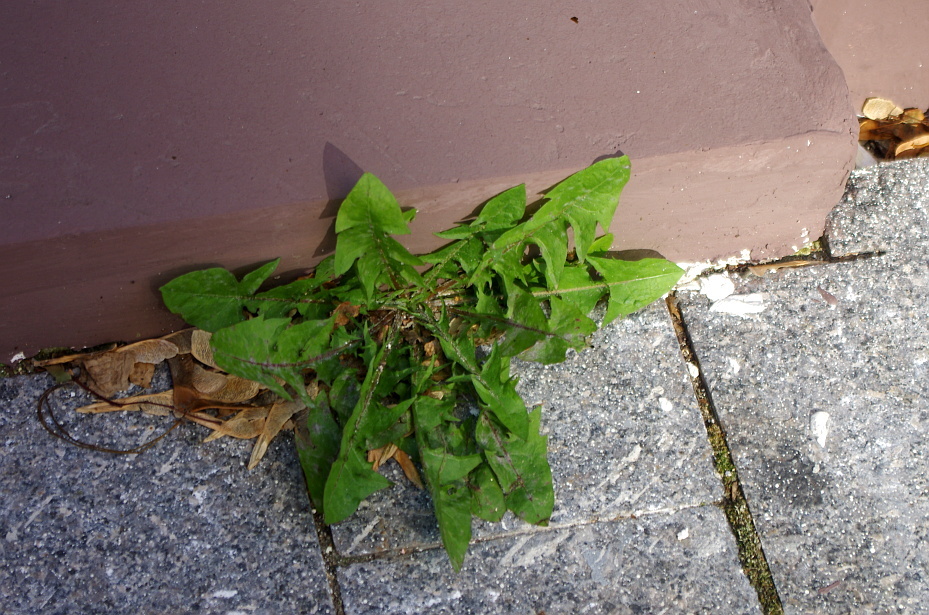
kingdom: Plantae
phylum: Tracheophyta
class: Magnoliopsida
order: Asterales
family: Asteraceae
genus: Taraxacum
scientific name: Taraxacum officinale
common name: Common dandelion
